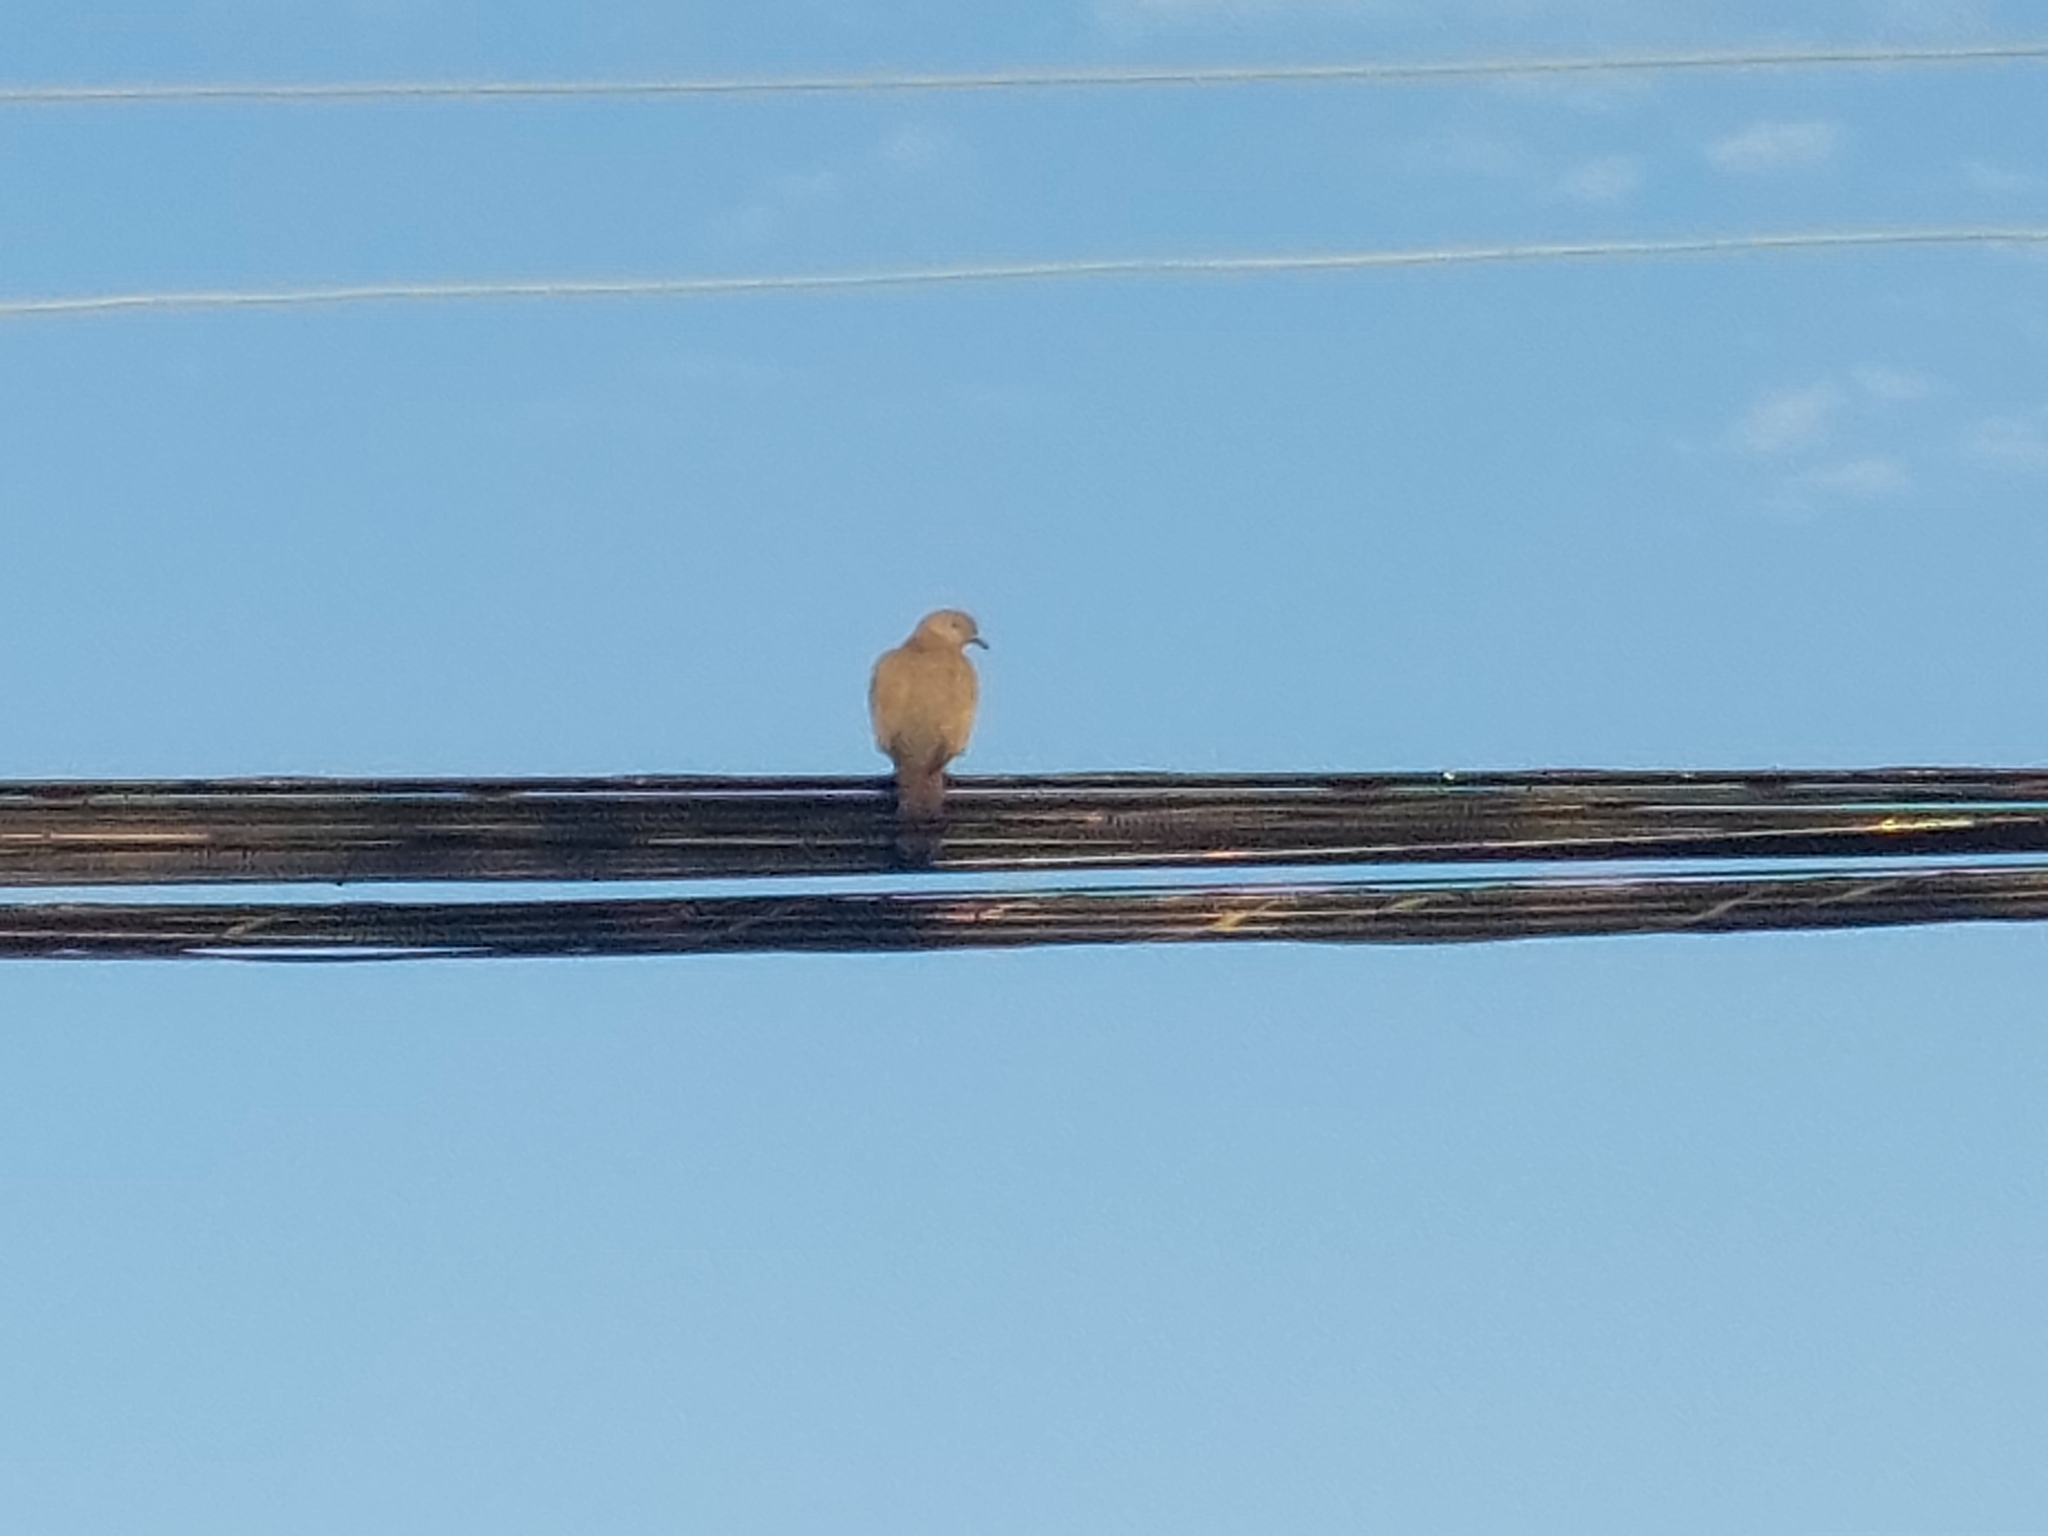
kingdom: Animalia
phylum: Chordata
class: Aves
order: Columbiformes
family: Columbidae
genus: Patagioenas
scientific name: Patagioenas araucana
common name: Chilean pigeon
